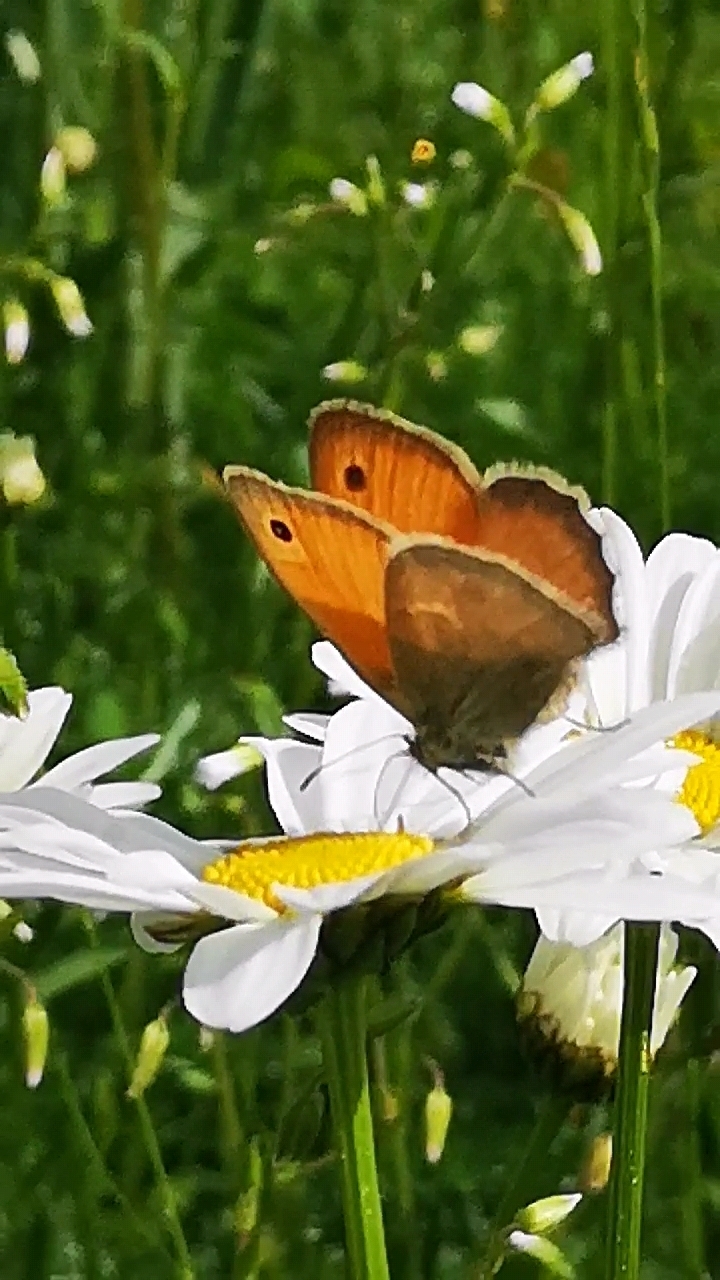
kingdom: Animalia
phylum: Arthropoda
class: Insecta
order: Lepidoptera
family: Nymphalidae
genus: Coenonympha
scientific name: Coenonympha pamphilus
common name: Small heath
